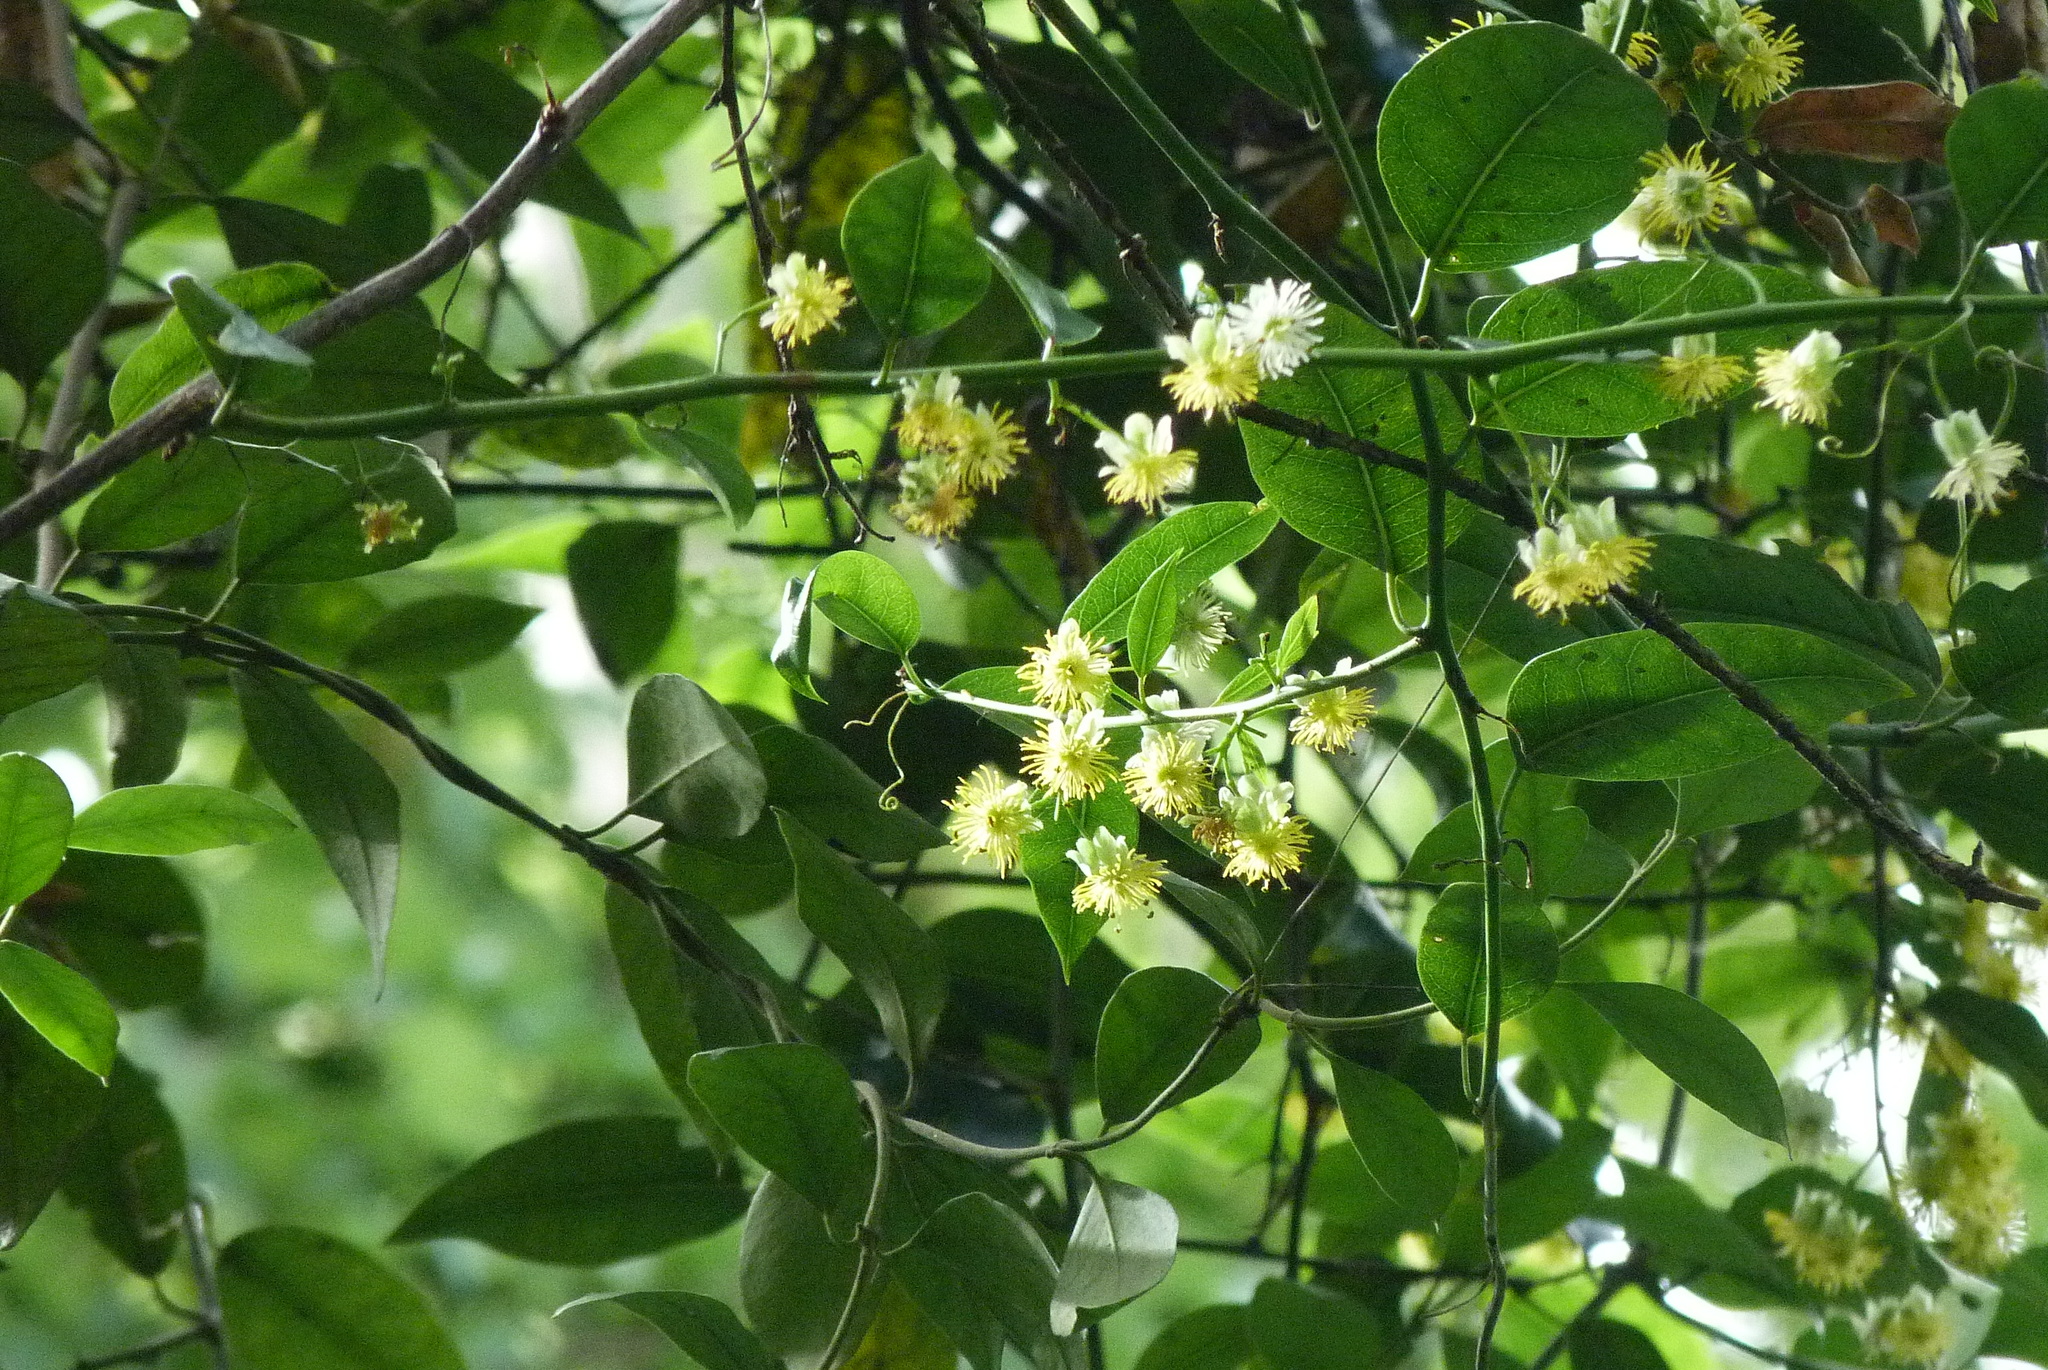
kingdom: Plantae
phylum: Tracheophyta
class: Magnoliopsida
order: Malpighiales
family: Passifloraceae
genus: Passiflora
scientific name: Passiflora tetrandra
